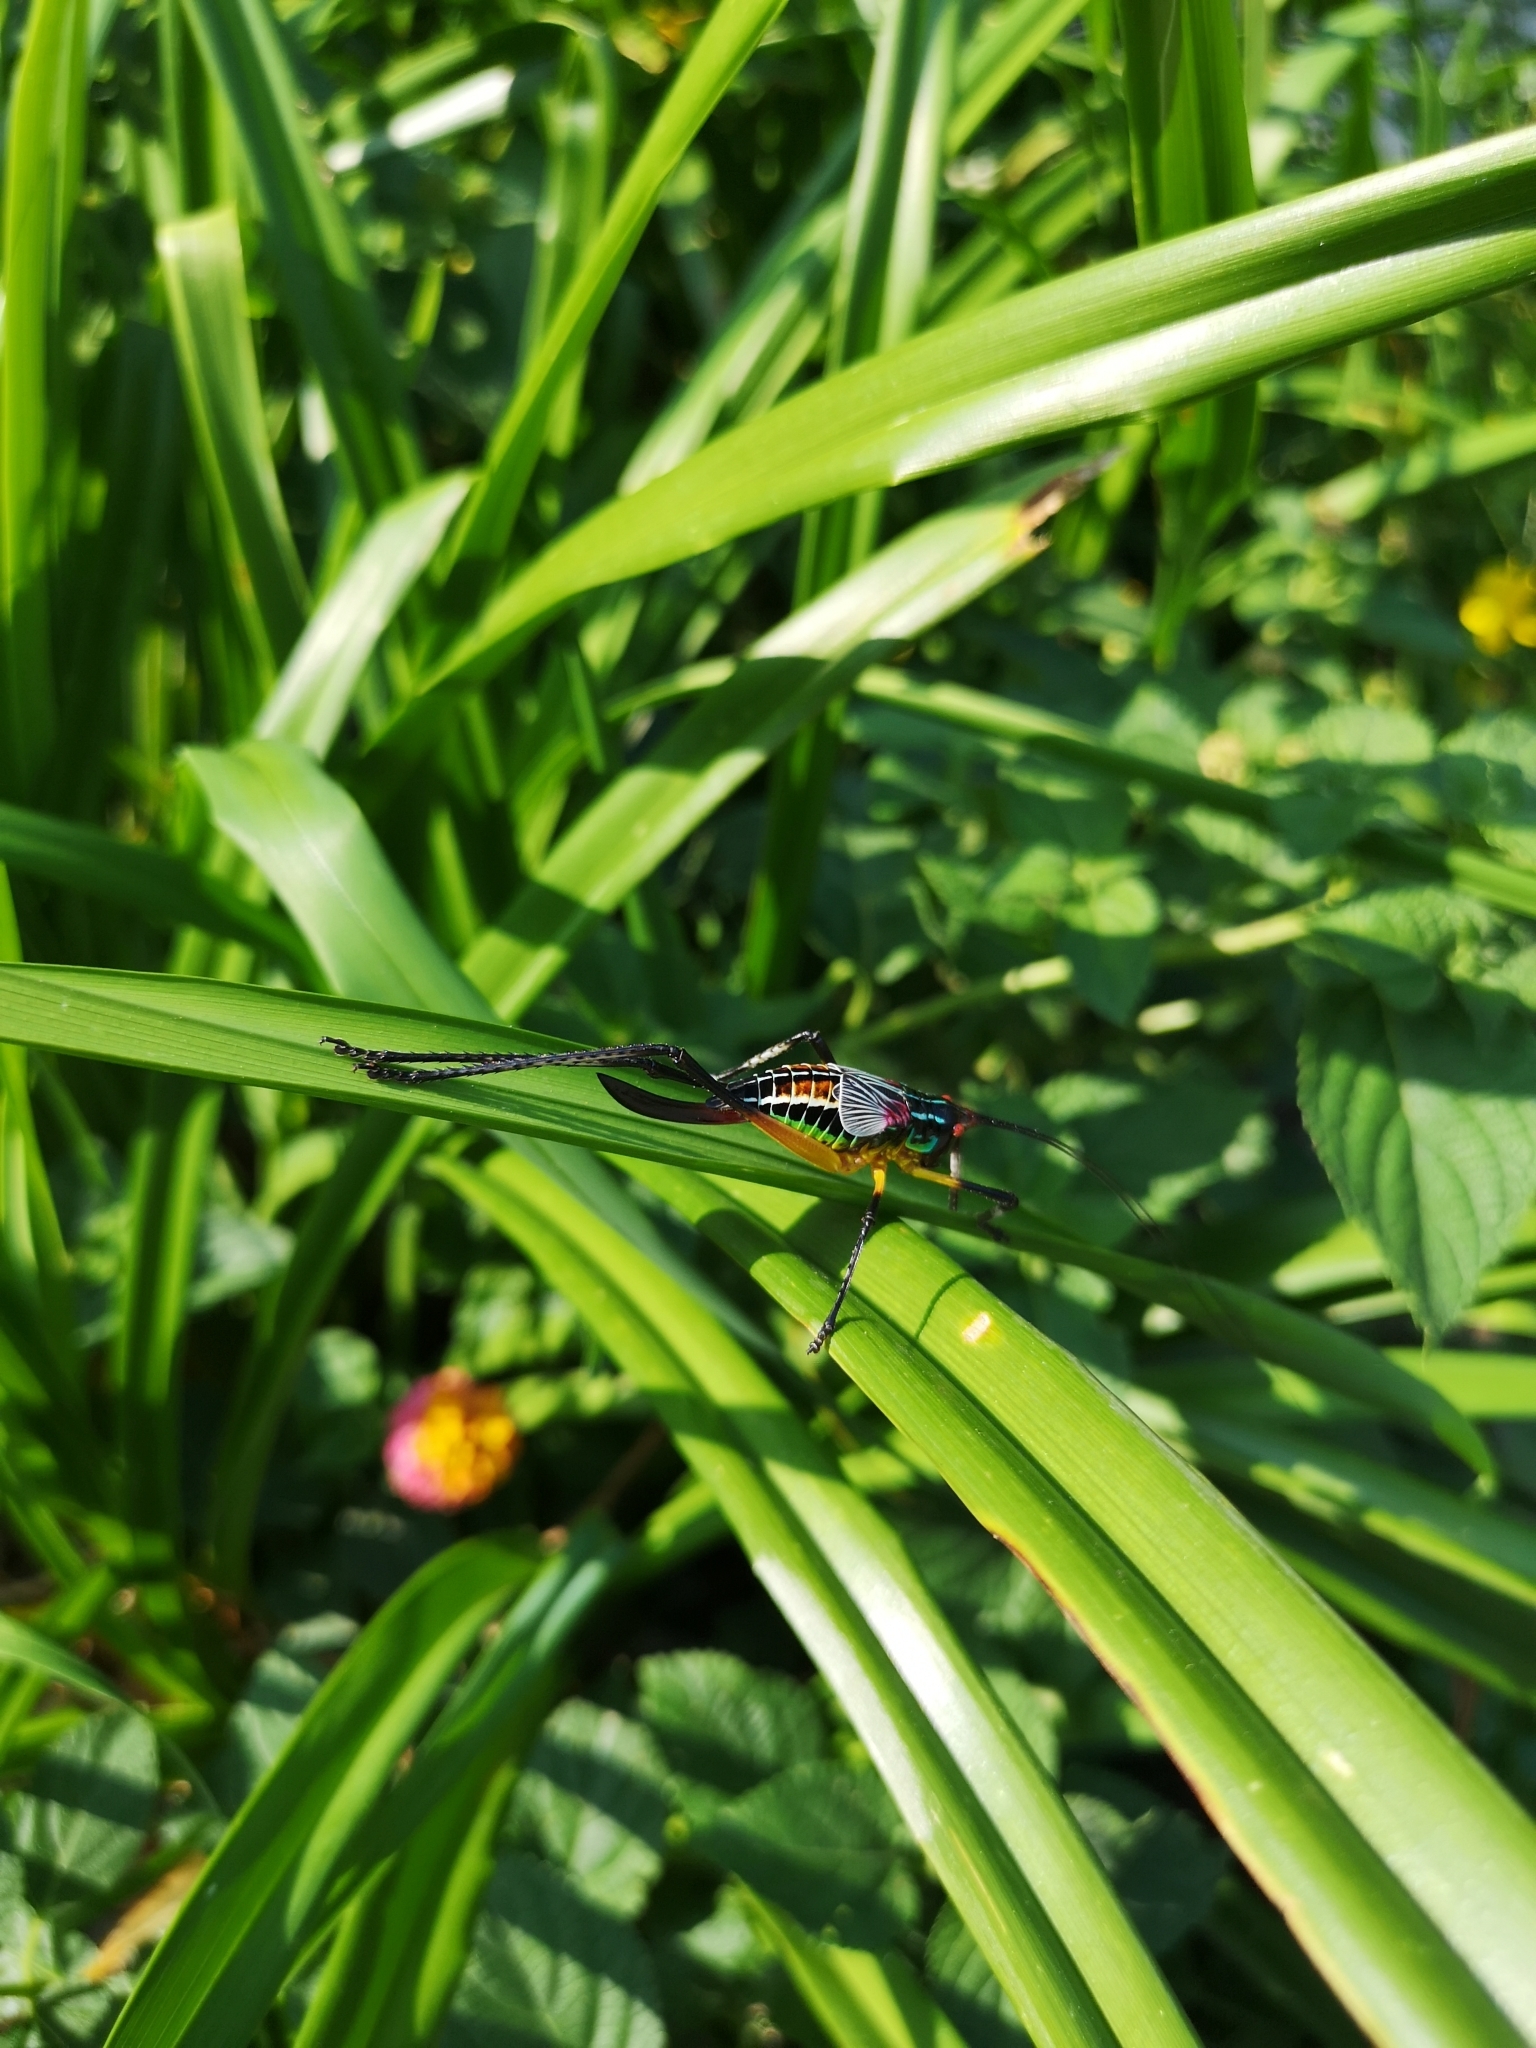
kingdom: Animalia
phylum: Arthropoda
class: Insecta
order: Orthoptera
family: Tettigoniidae
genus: Pterophylla
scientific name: Pterophylla beltrani
